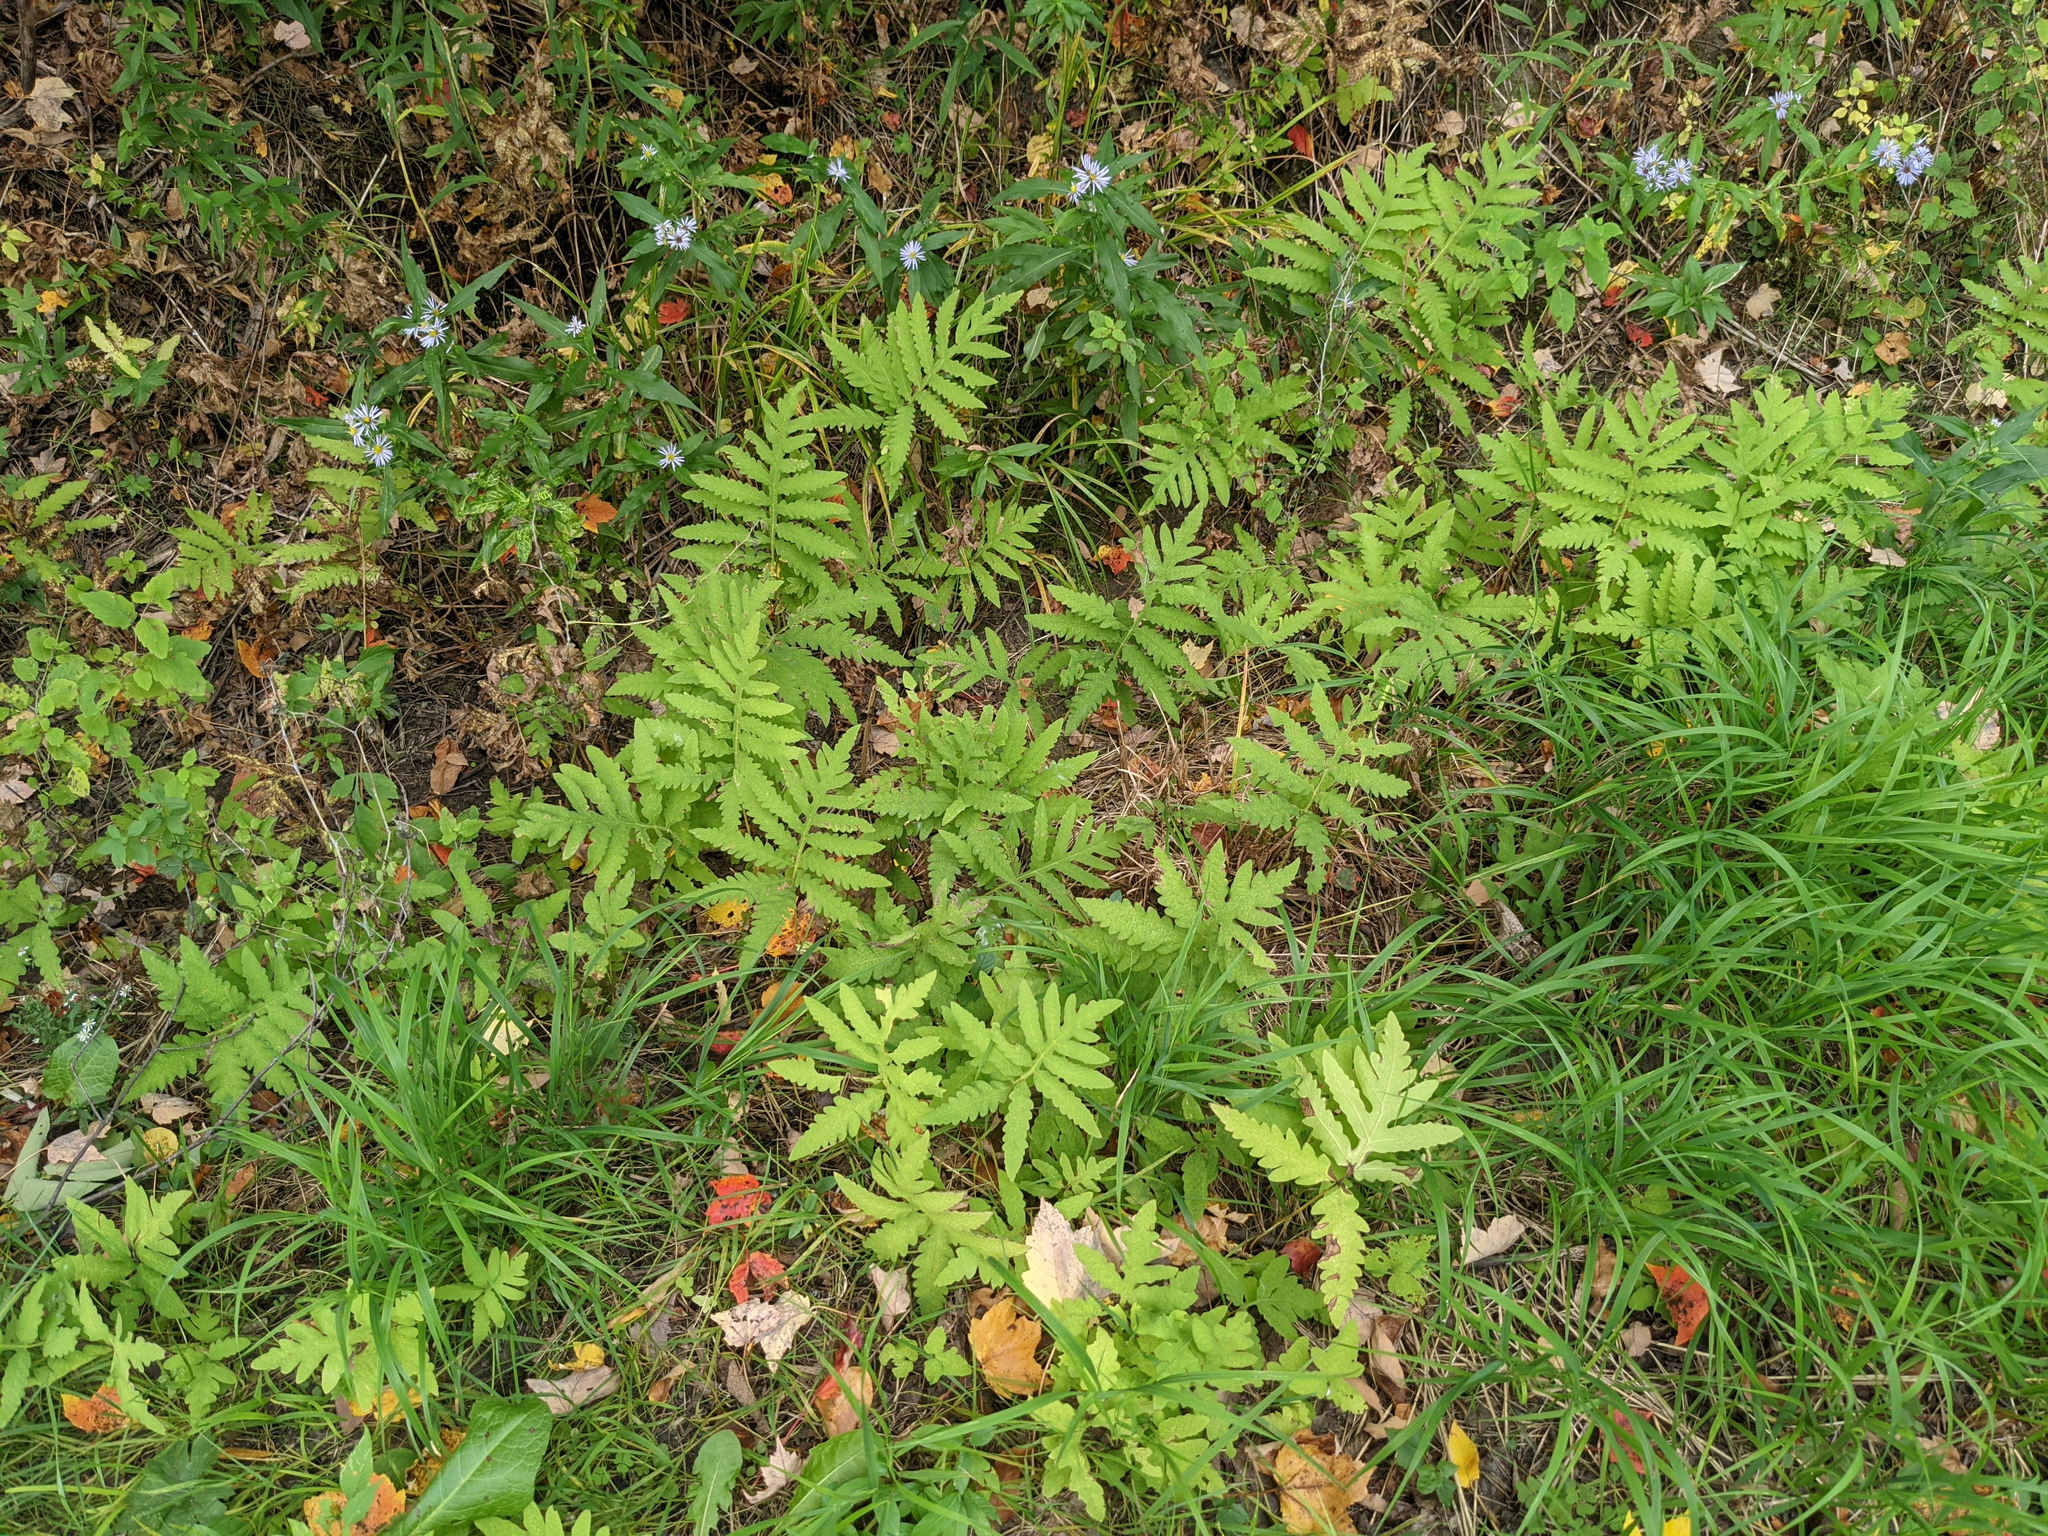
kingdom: Plantae
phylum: Tracheophyta
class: Polypodiopsida
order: Polypodiales
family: Onocleaceae
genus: Onoclea
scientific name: Onoclea sensibilis
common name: Sensitive fern
